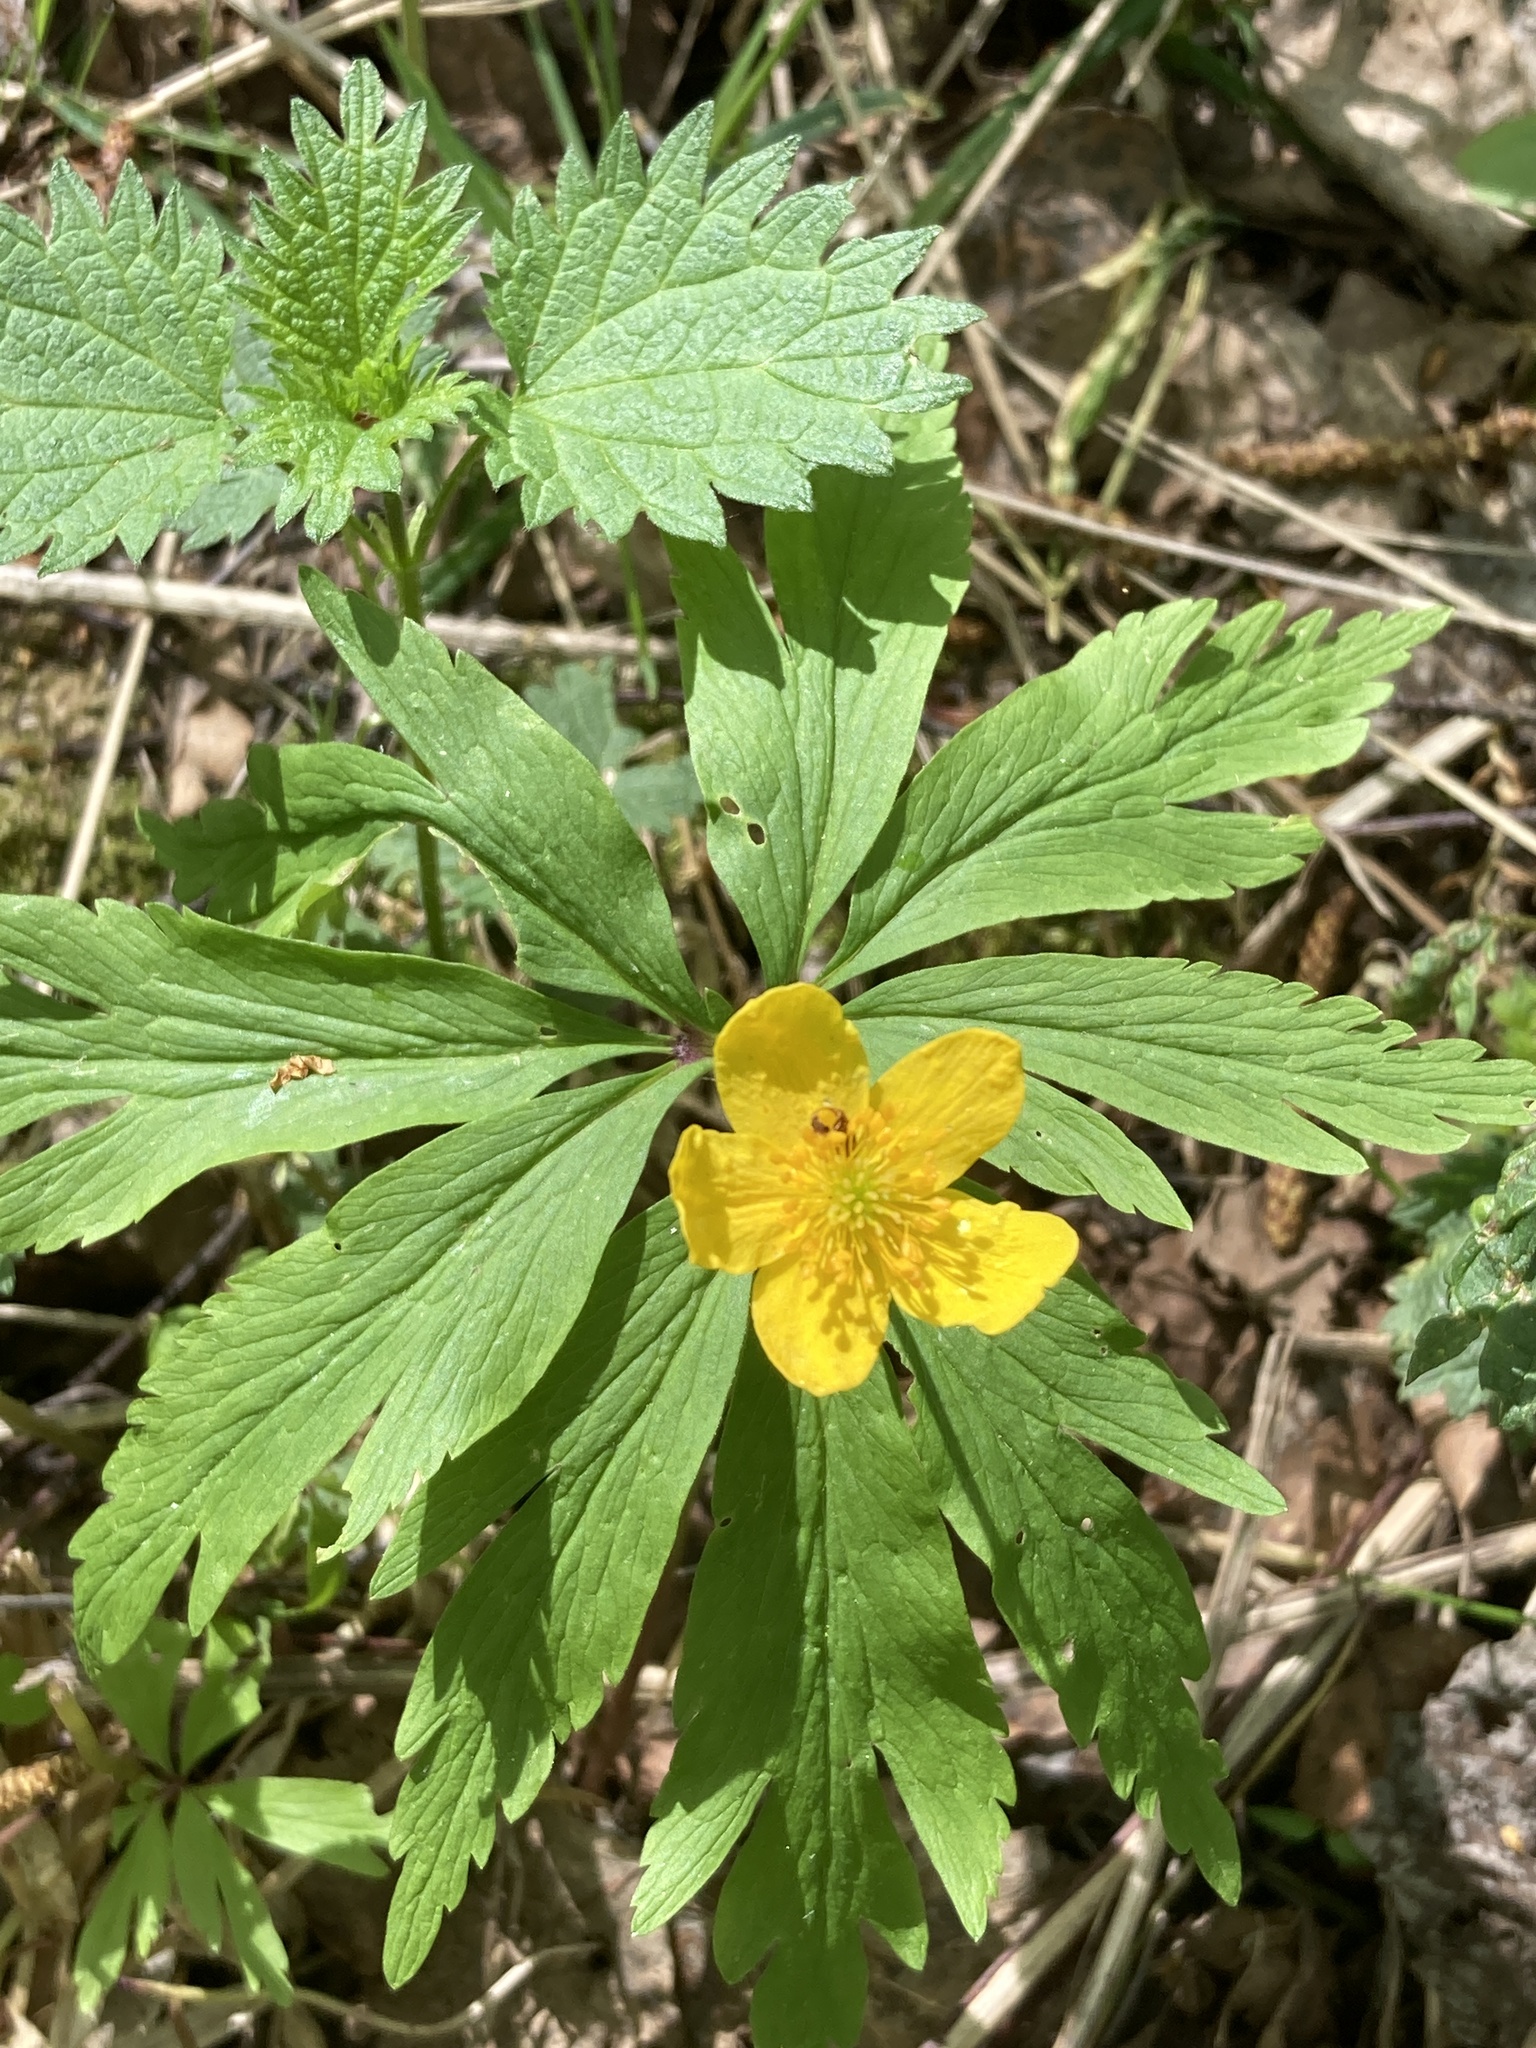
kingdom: Plantae
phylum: Tracheophyta
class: Magnoliopsida
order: Ranunculales
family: Ranunculaceae
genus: Anemone
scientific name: Anemone ranunculoides
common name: Yellow anemone
